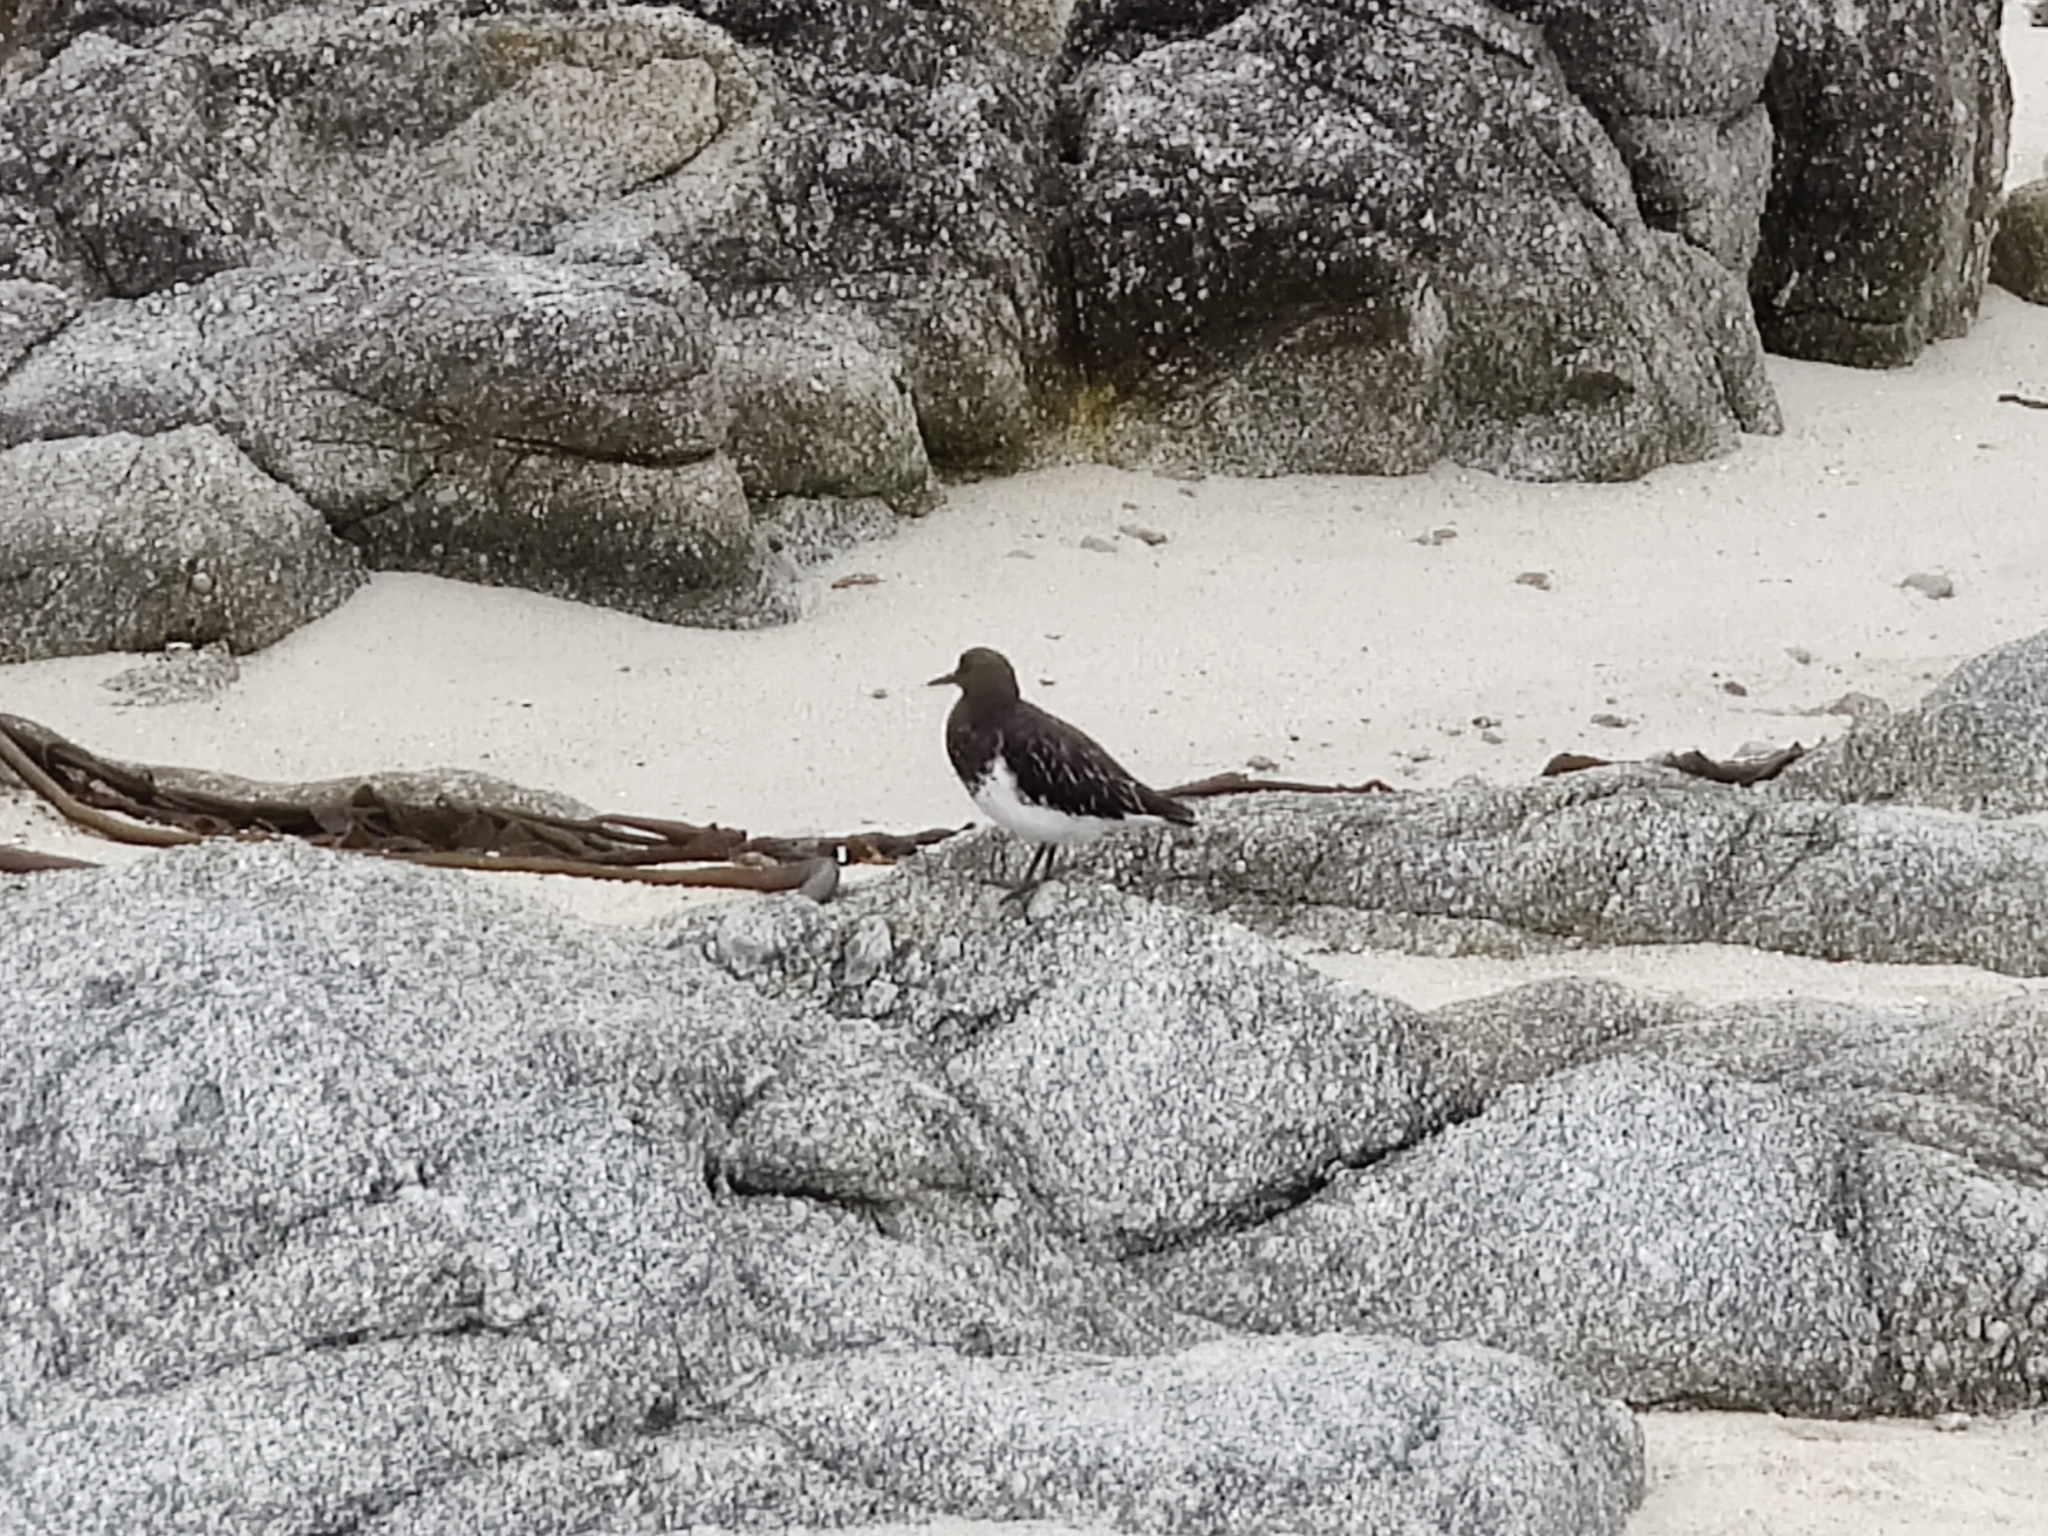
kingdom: Animalia
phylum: Chordata
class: Aves
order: Charadriiformes
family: Scolopacidae
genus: Arenaria
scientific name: Arenaria melanocephala
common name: Black turnstone
